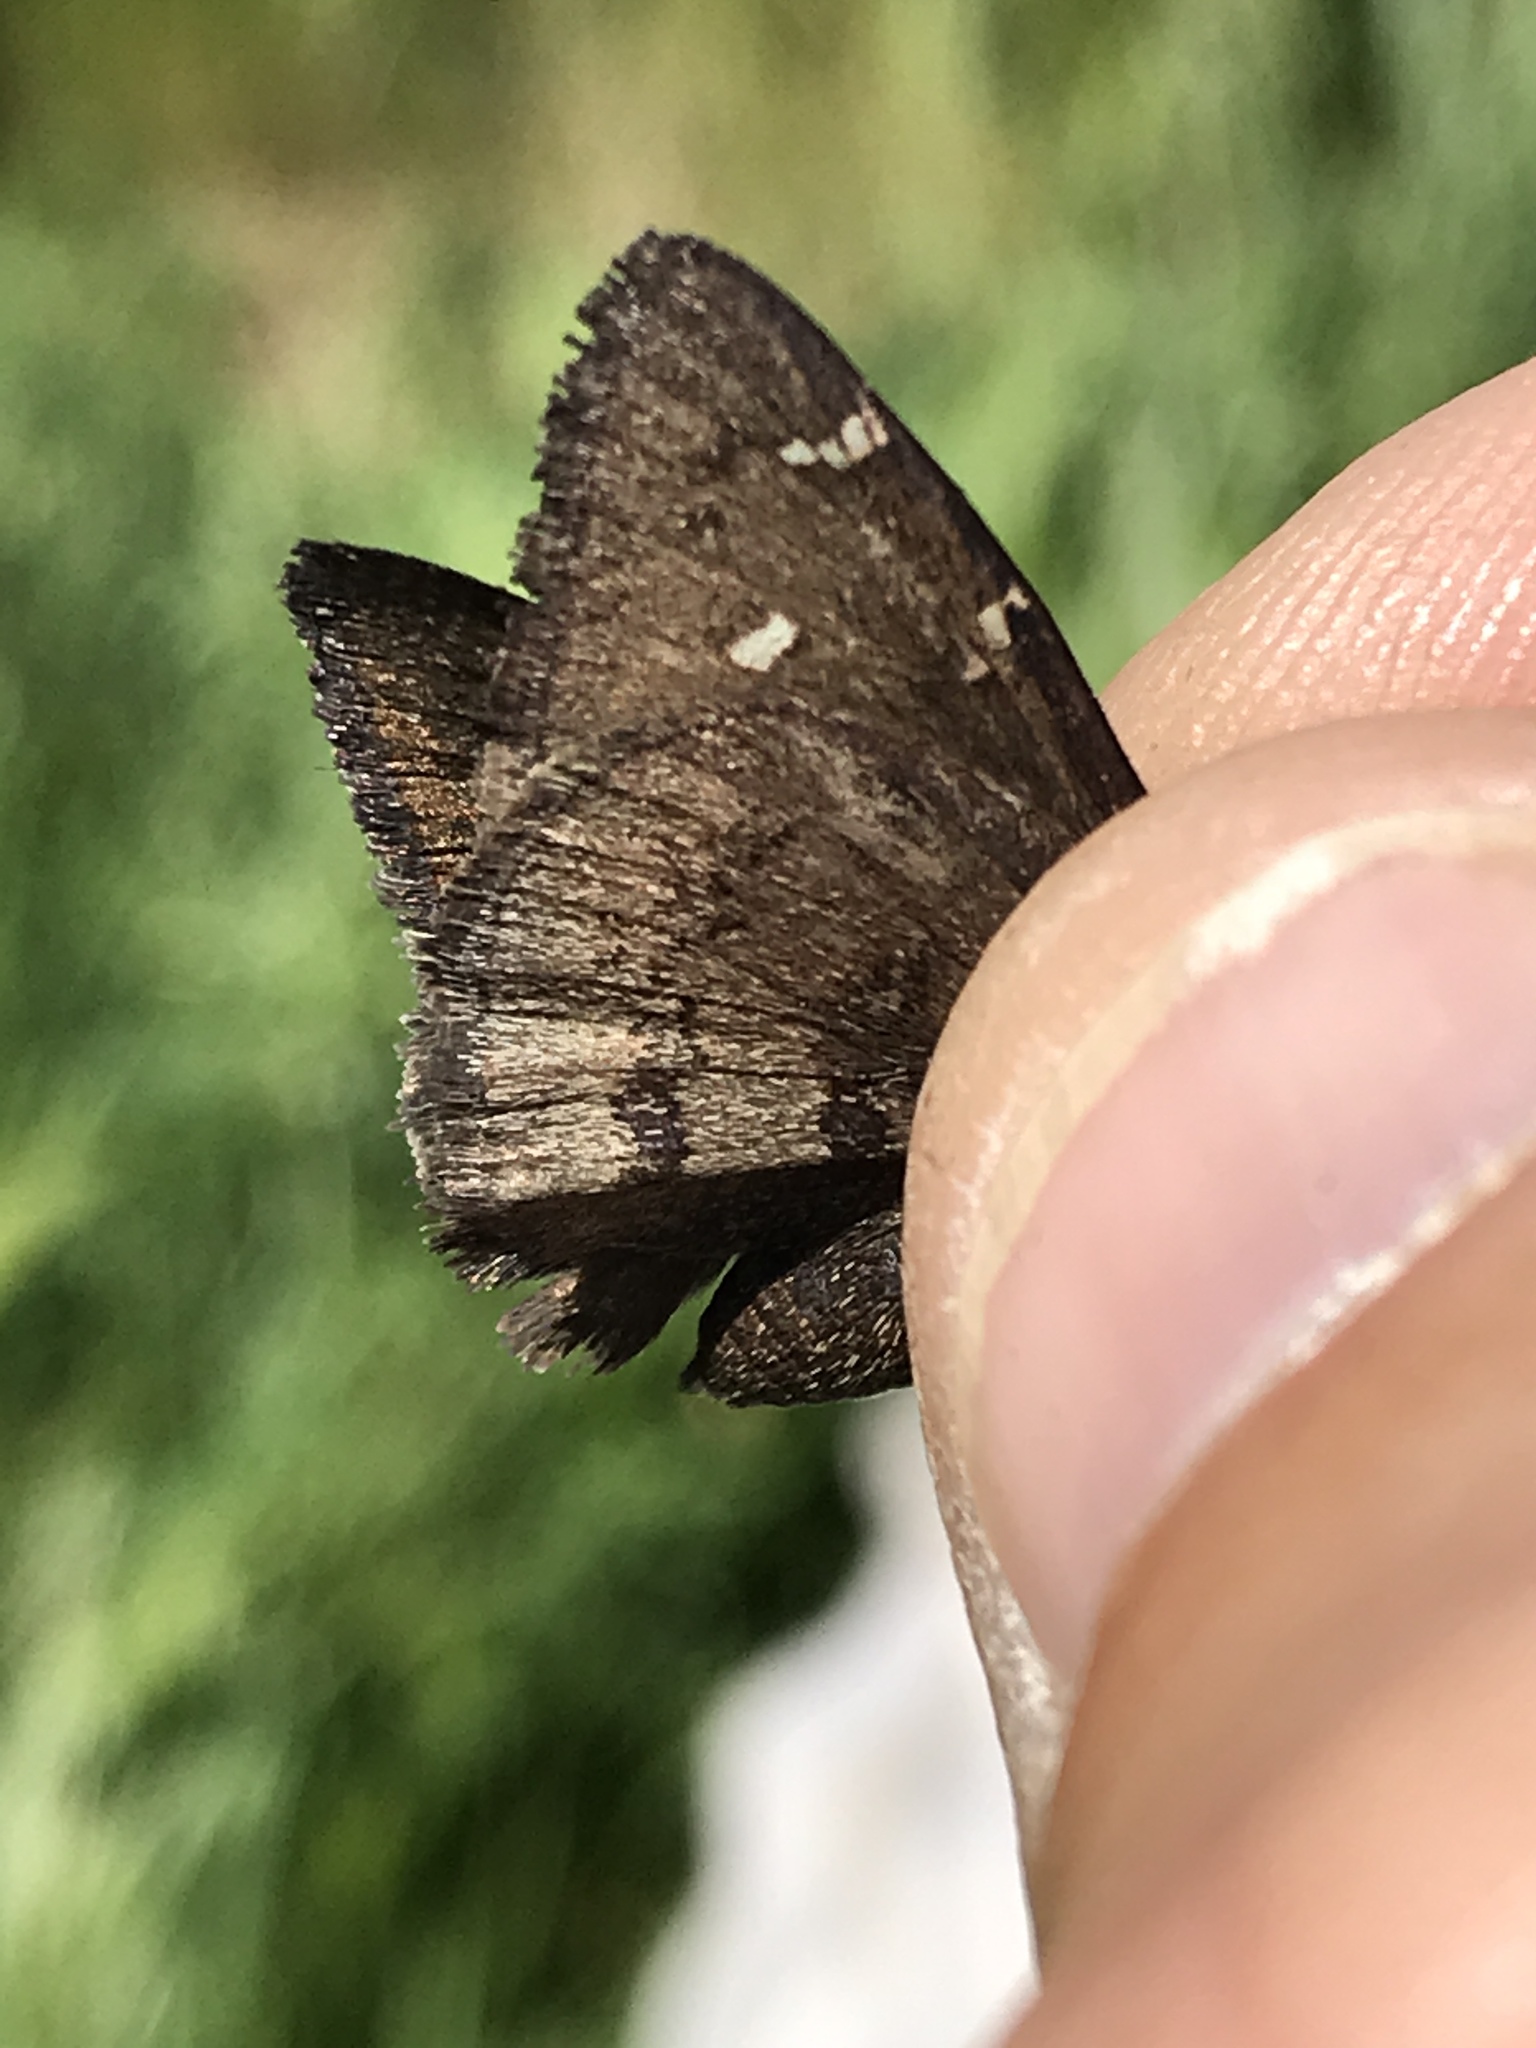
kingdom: Animalia
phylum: Arthropoda
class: Insecta
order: Lepidoptera
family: Hesperiidae
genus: Thorybes
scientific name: Thorybes pylades
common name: Northern cloudywing
